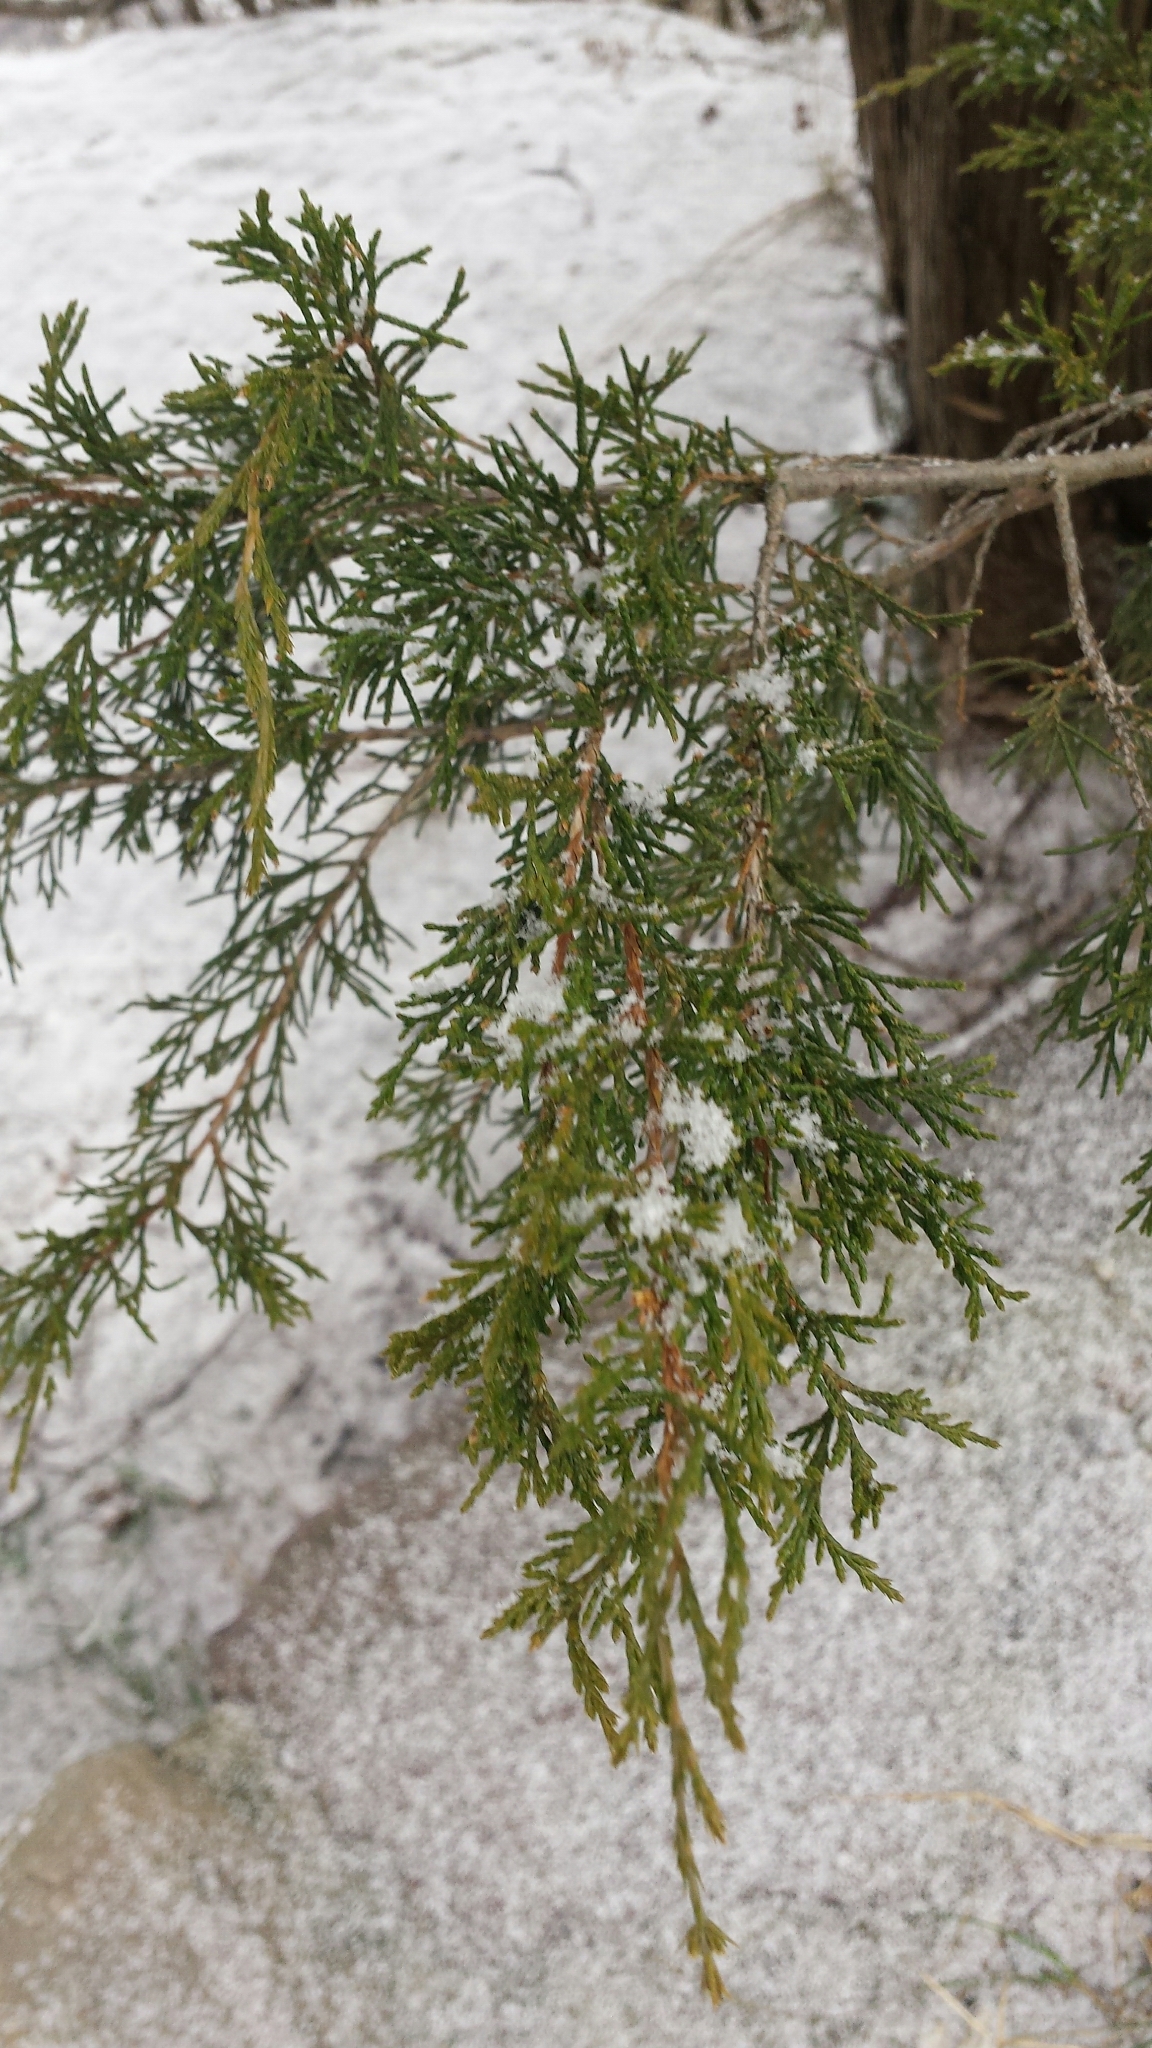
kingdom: Plantae
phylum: Tracheophyta
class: Pinopsida
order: Pinales
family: Cupressaceae
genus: Juniperus
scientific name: Juniperus virginiana
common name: Red juniper
